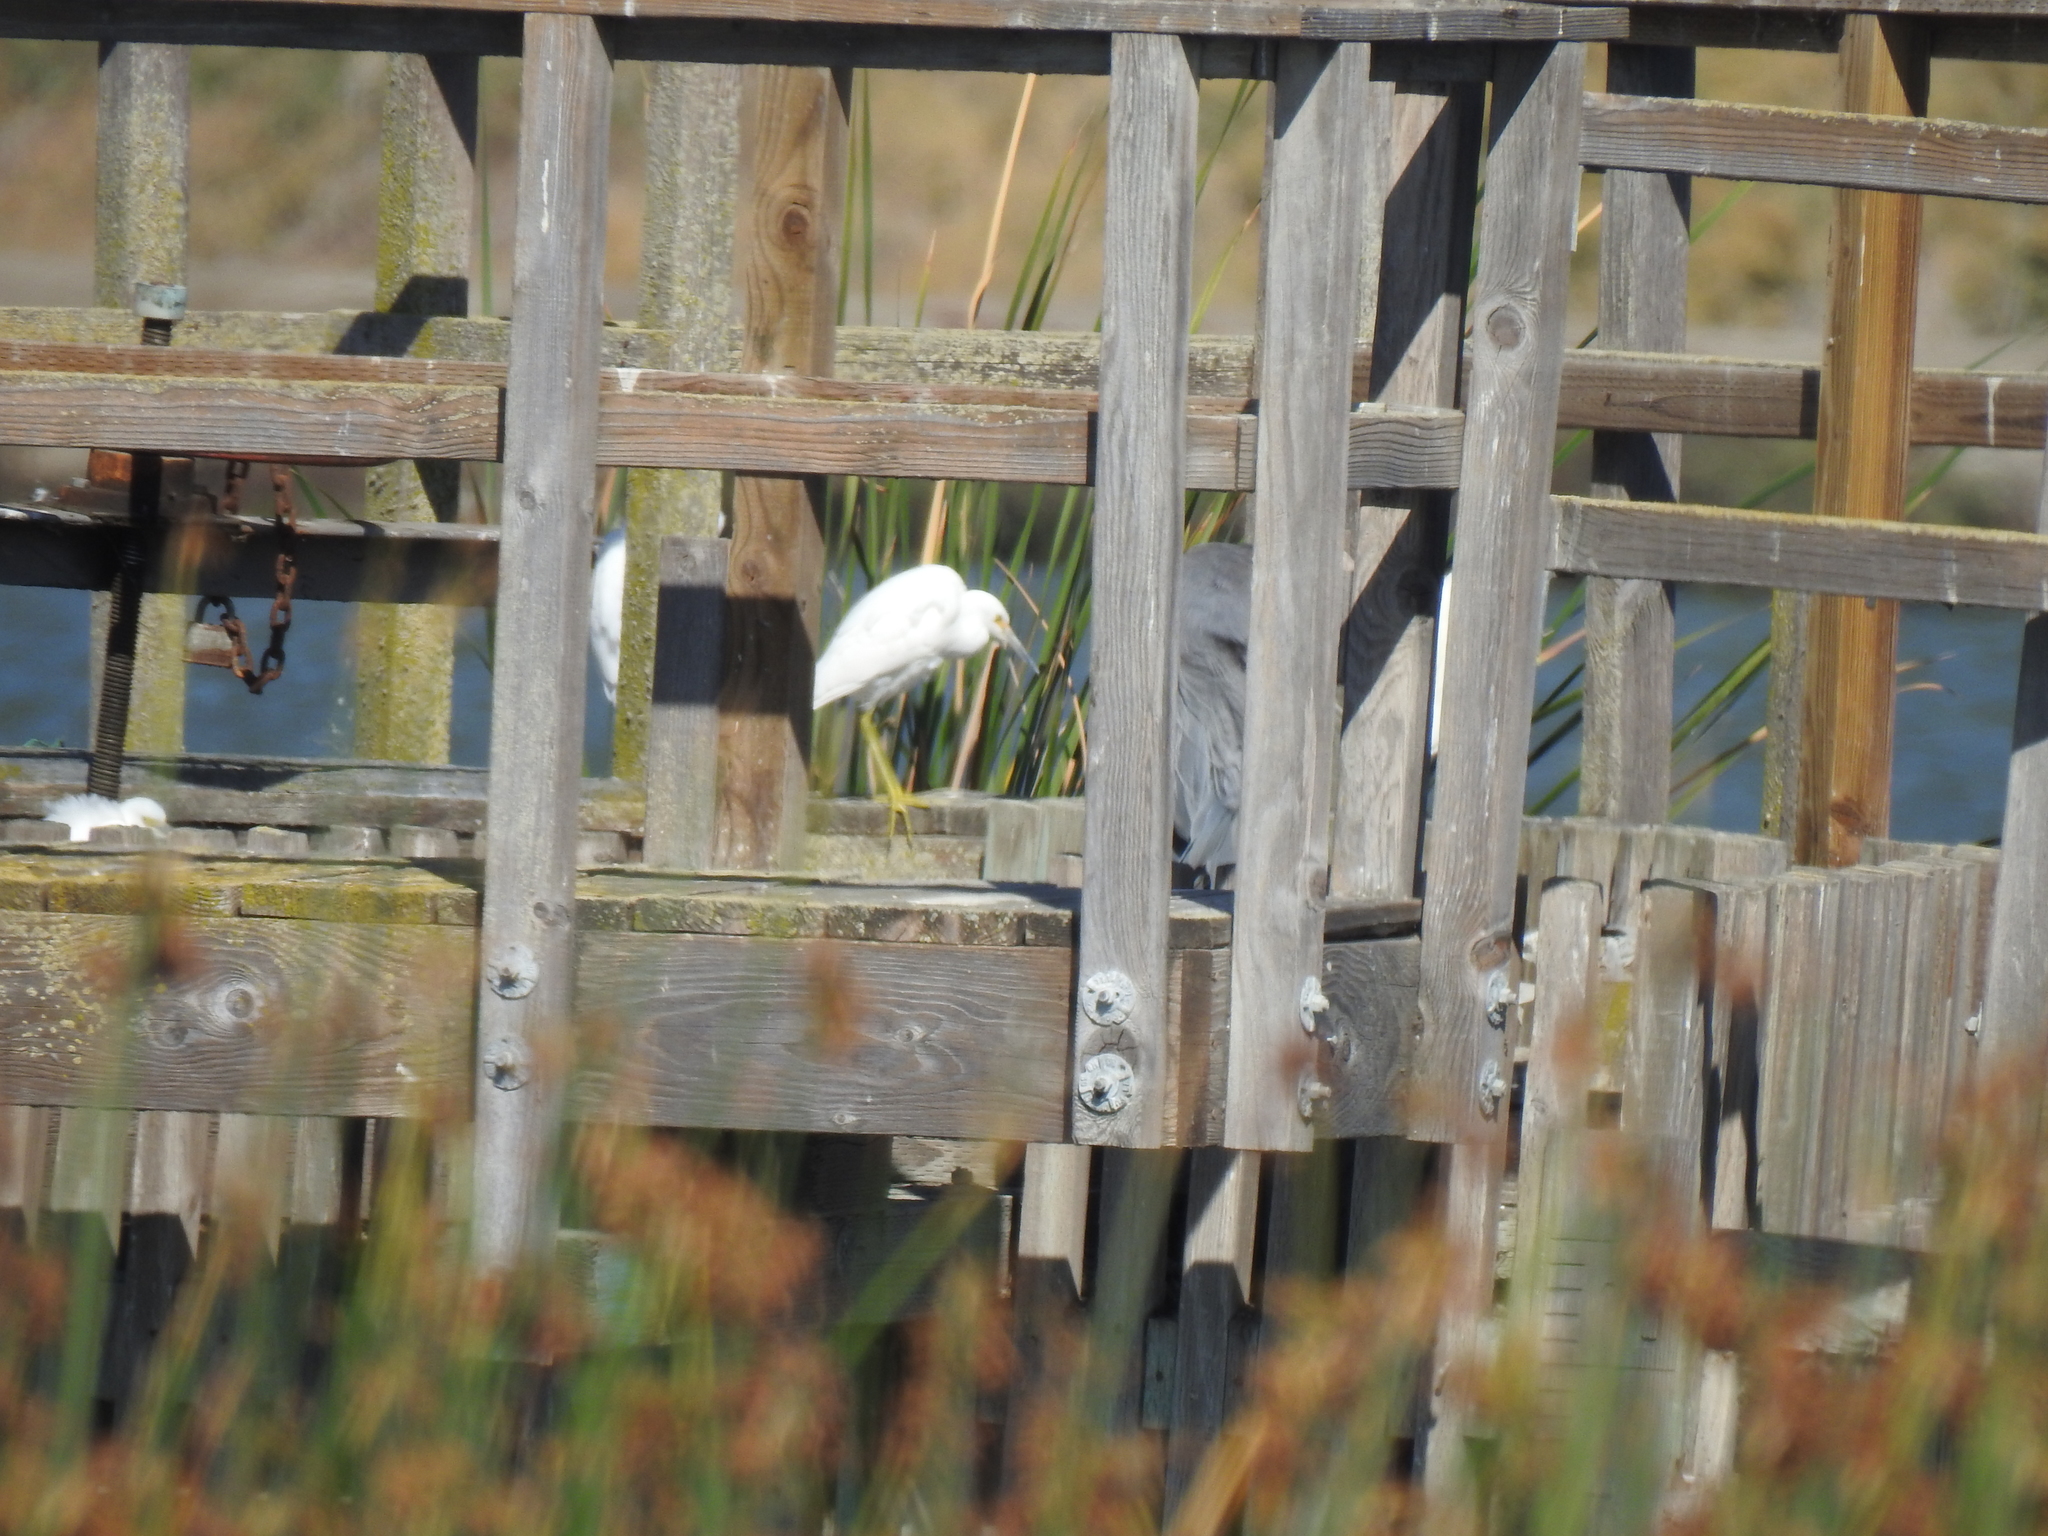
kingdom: Animalia
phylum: Chordata
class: Aves
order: Pelecaniformes
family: Ardeidae
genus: Egretta
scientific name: Egretta thula
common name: Snowy egret
